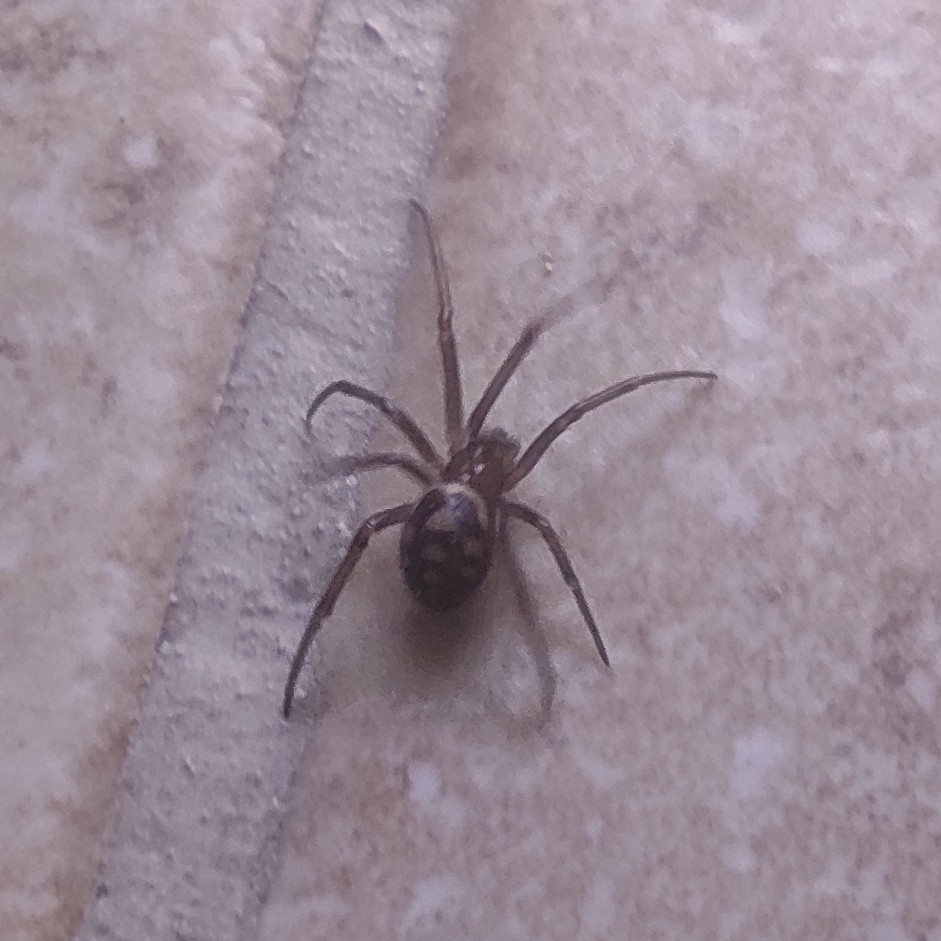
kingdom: Animalia
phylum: Arthropoda
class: Arachnida
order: Araneae
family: Theridiidae
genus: Steatoda
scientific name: Steatoda grossa
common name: False black widow
